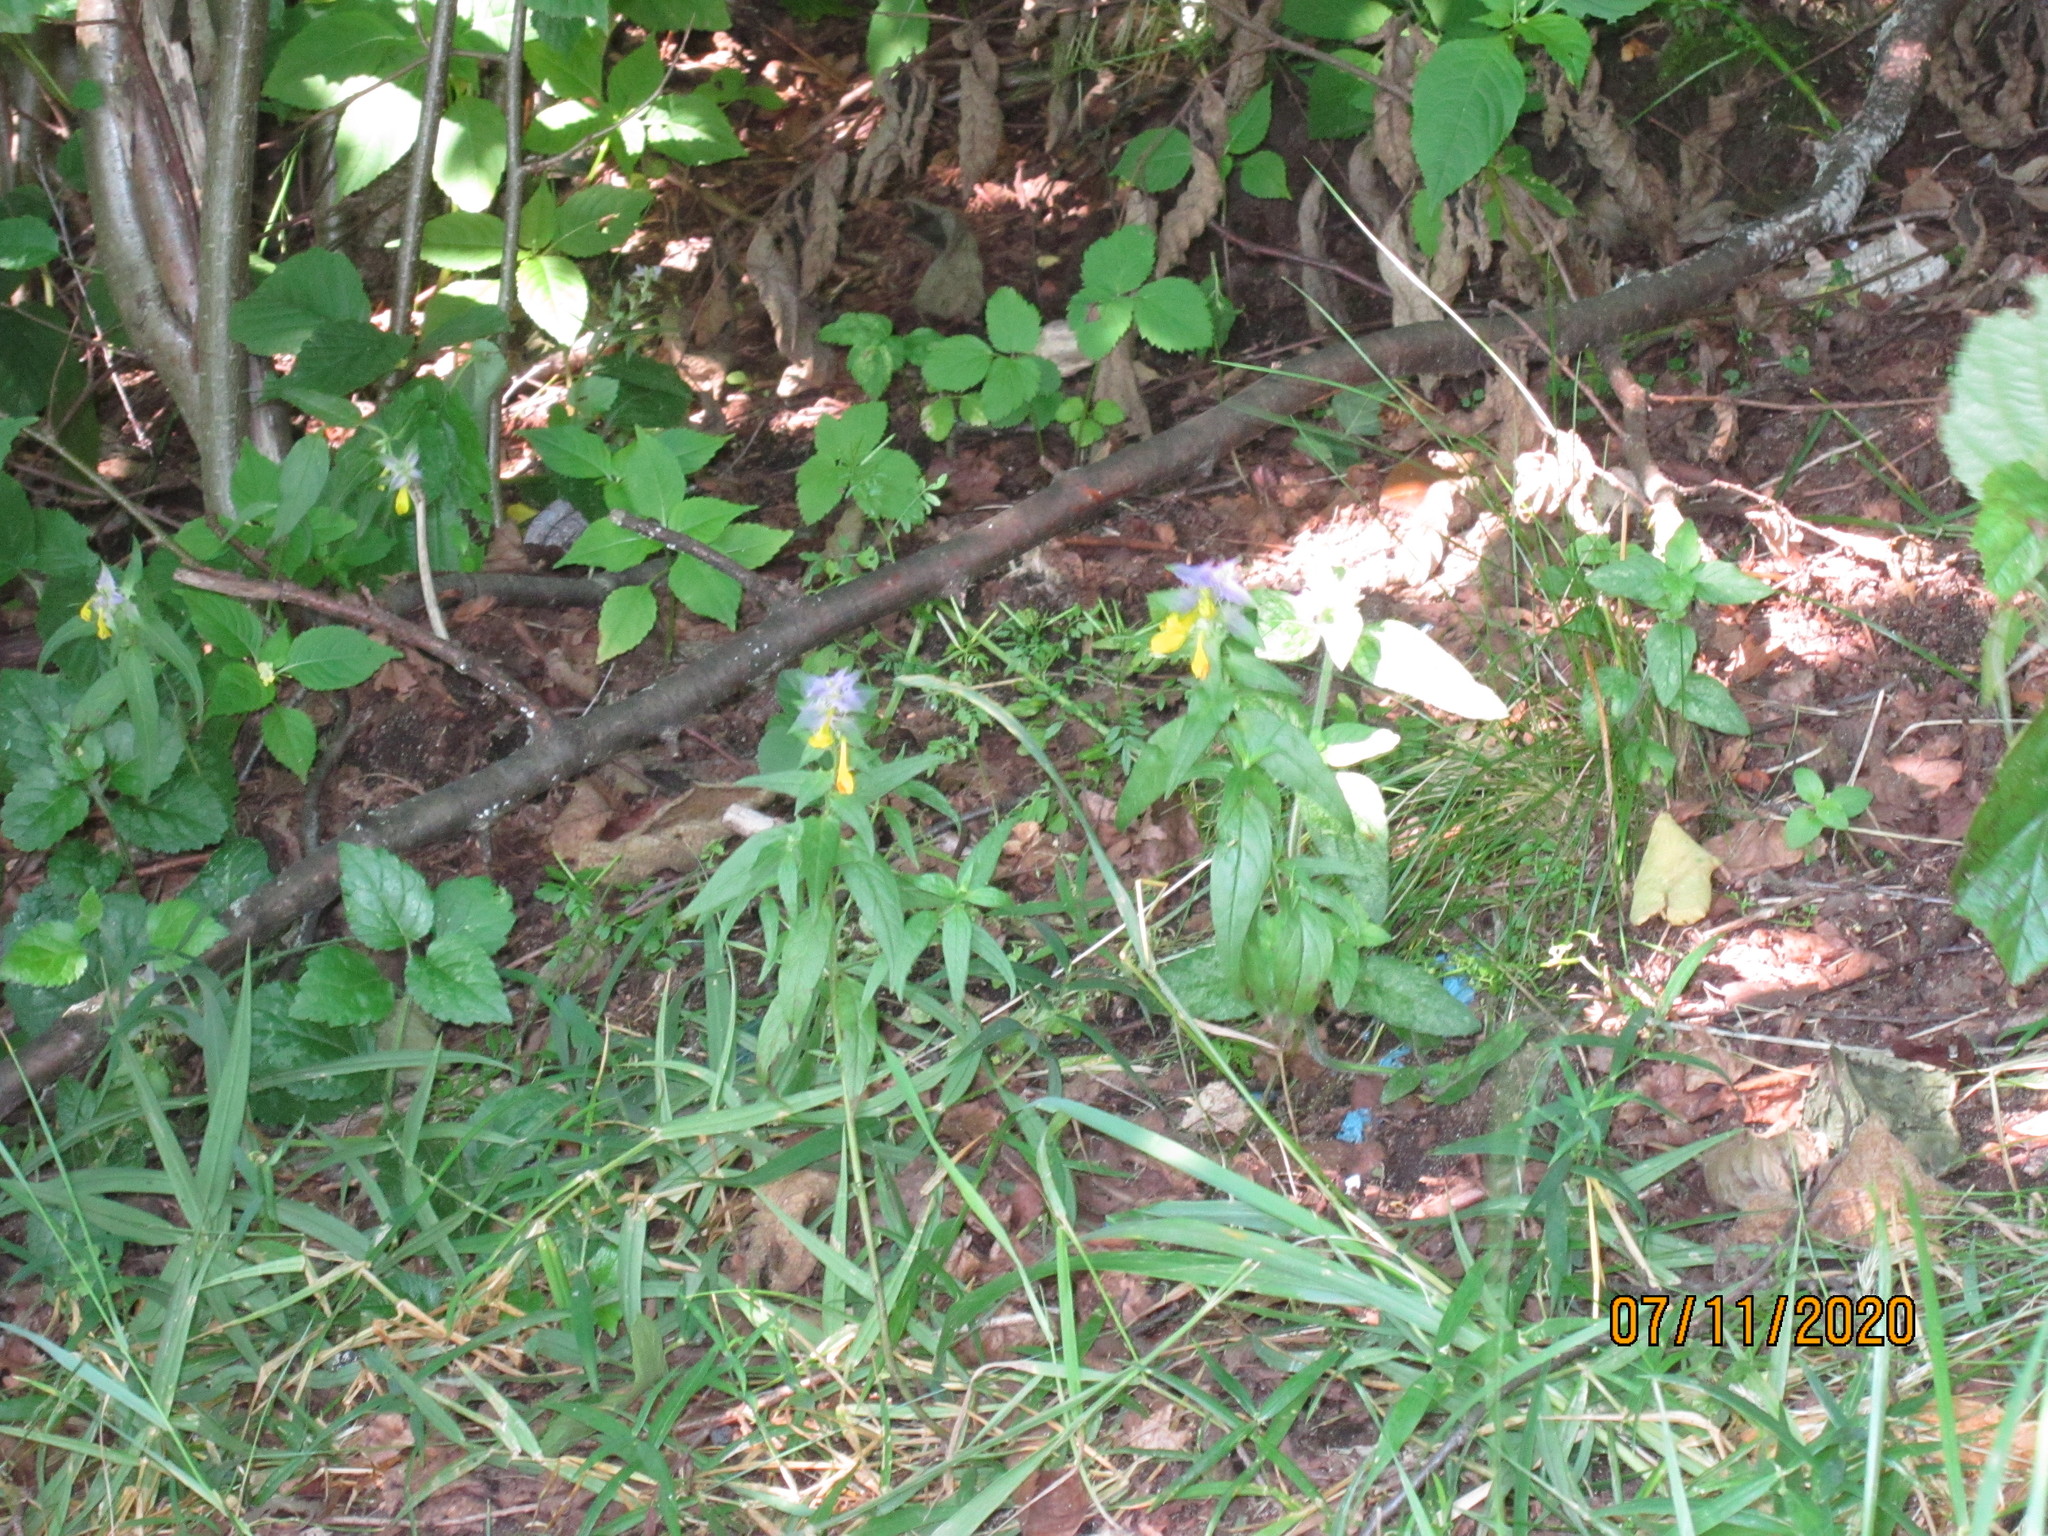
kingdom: Plantae
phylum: Tracheophyta
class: Magnoliopsida
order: Lamiales
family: Orobanchaceae
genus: Melampyrum
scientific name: Melampyrum nemorosum
